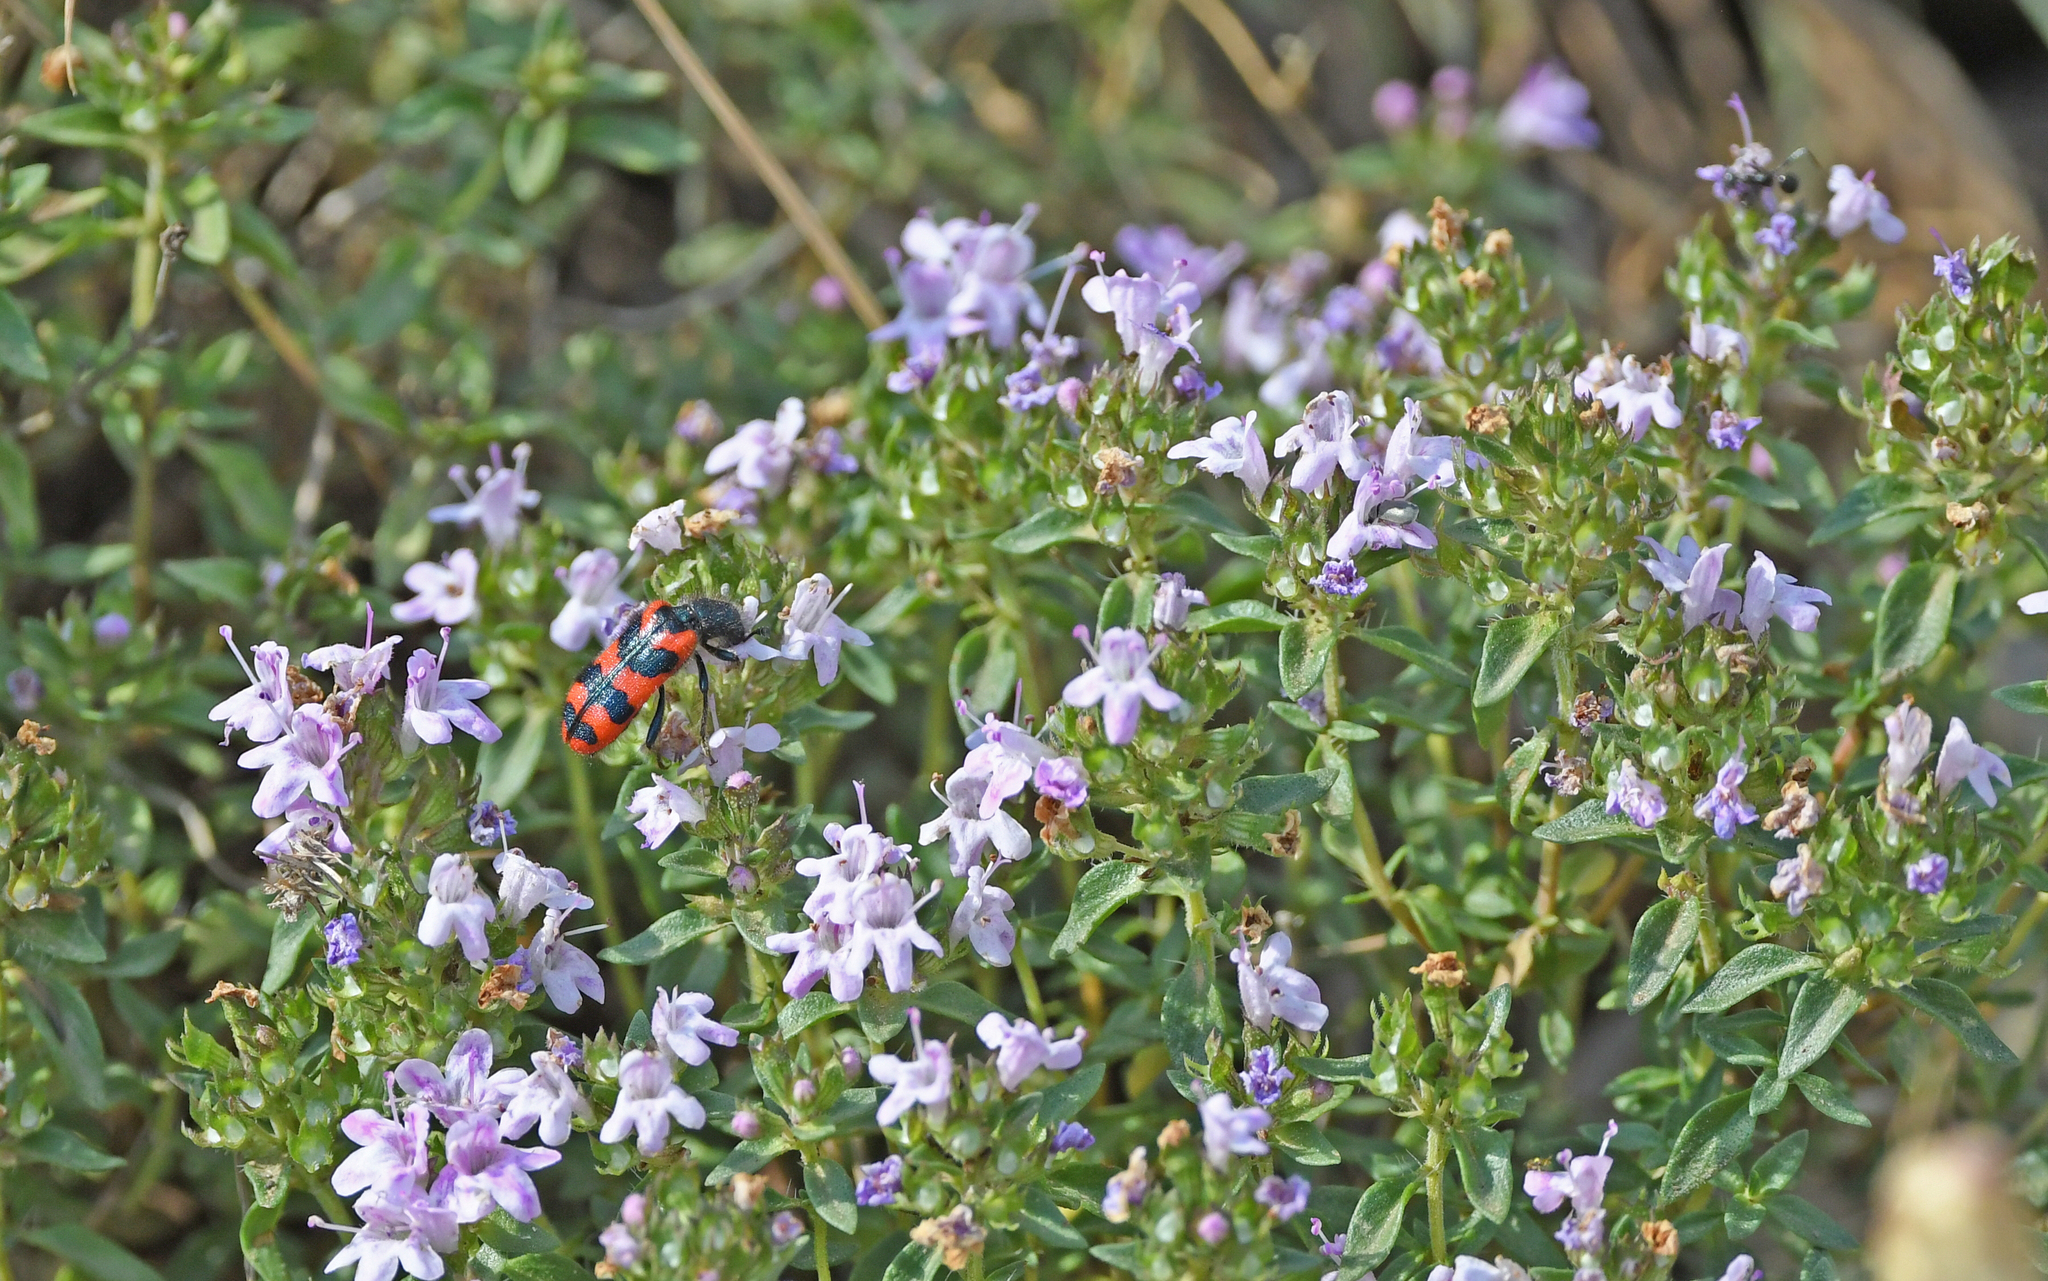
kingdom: Animalia
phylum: Arthropoda
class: Insecta
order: Coleoptera
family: Cleridae
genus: Trichodes
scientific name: Trichodes alvearius
